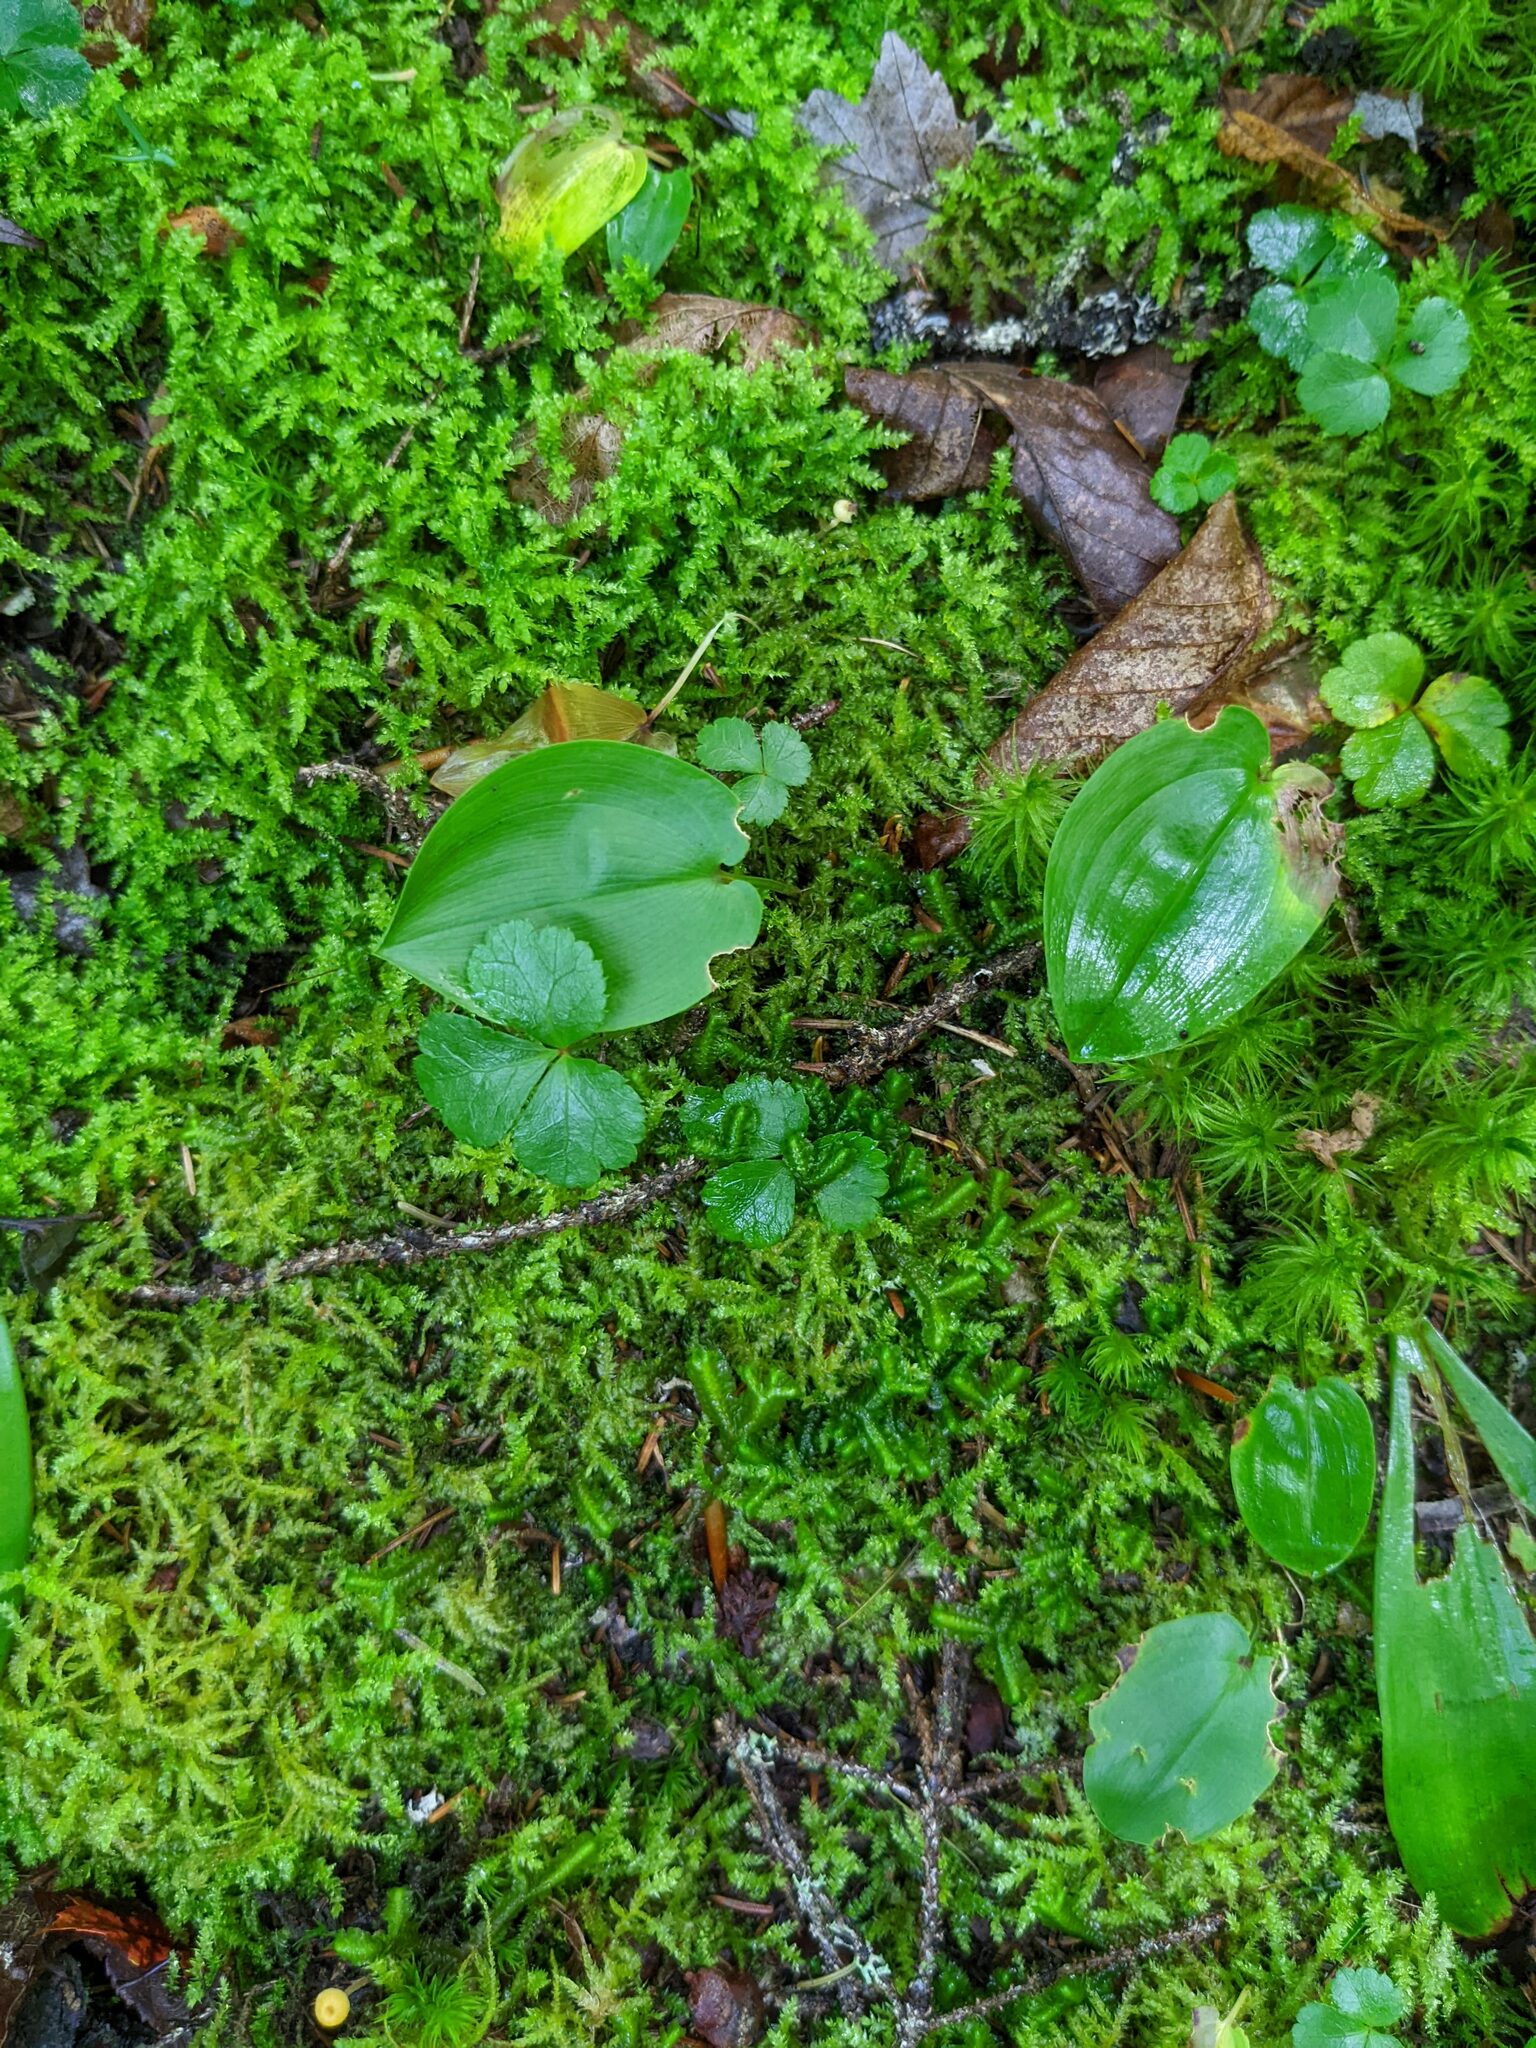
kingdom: Plantae
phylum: Tracheophyta
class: Magnoliopsida
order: Ranunculales
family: Ranunculaceae
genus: Coptis
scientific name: Coptis trifolia
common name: Canker-root
